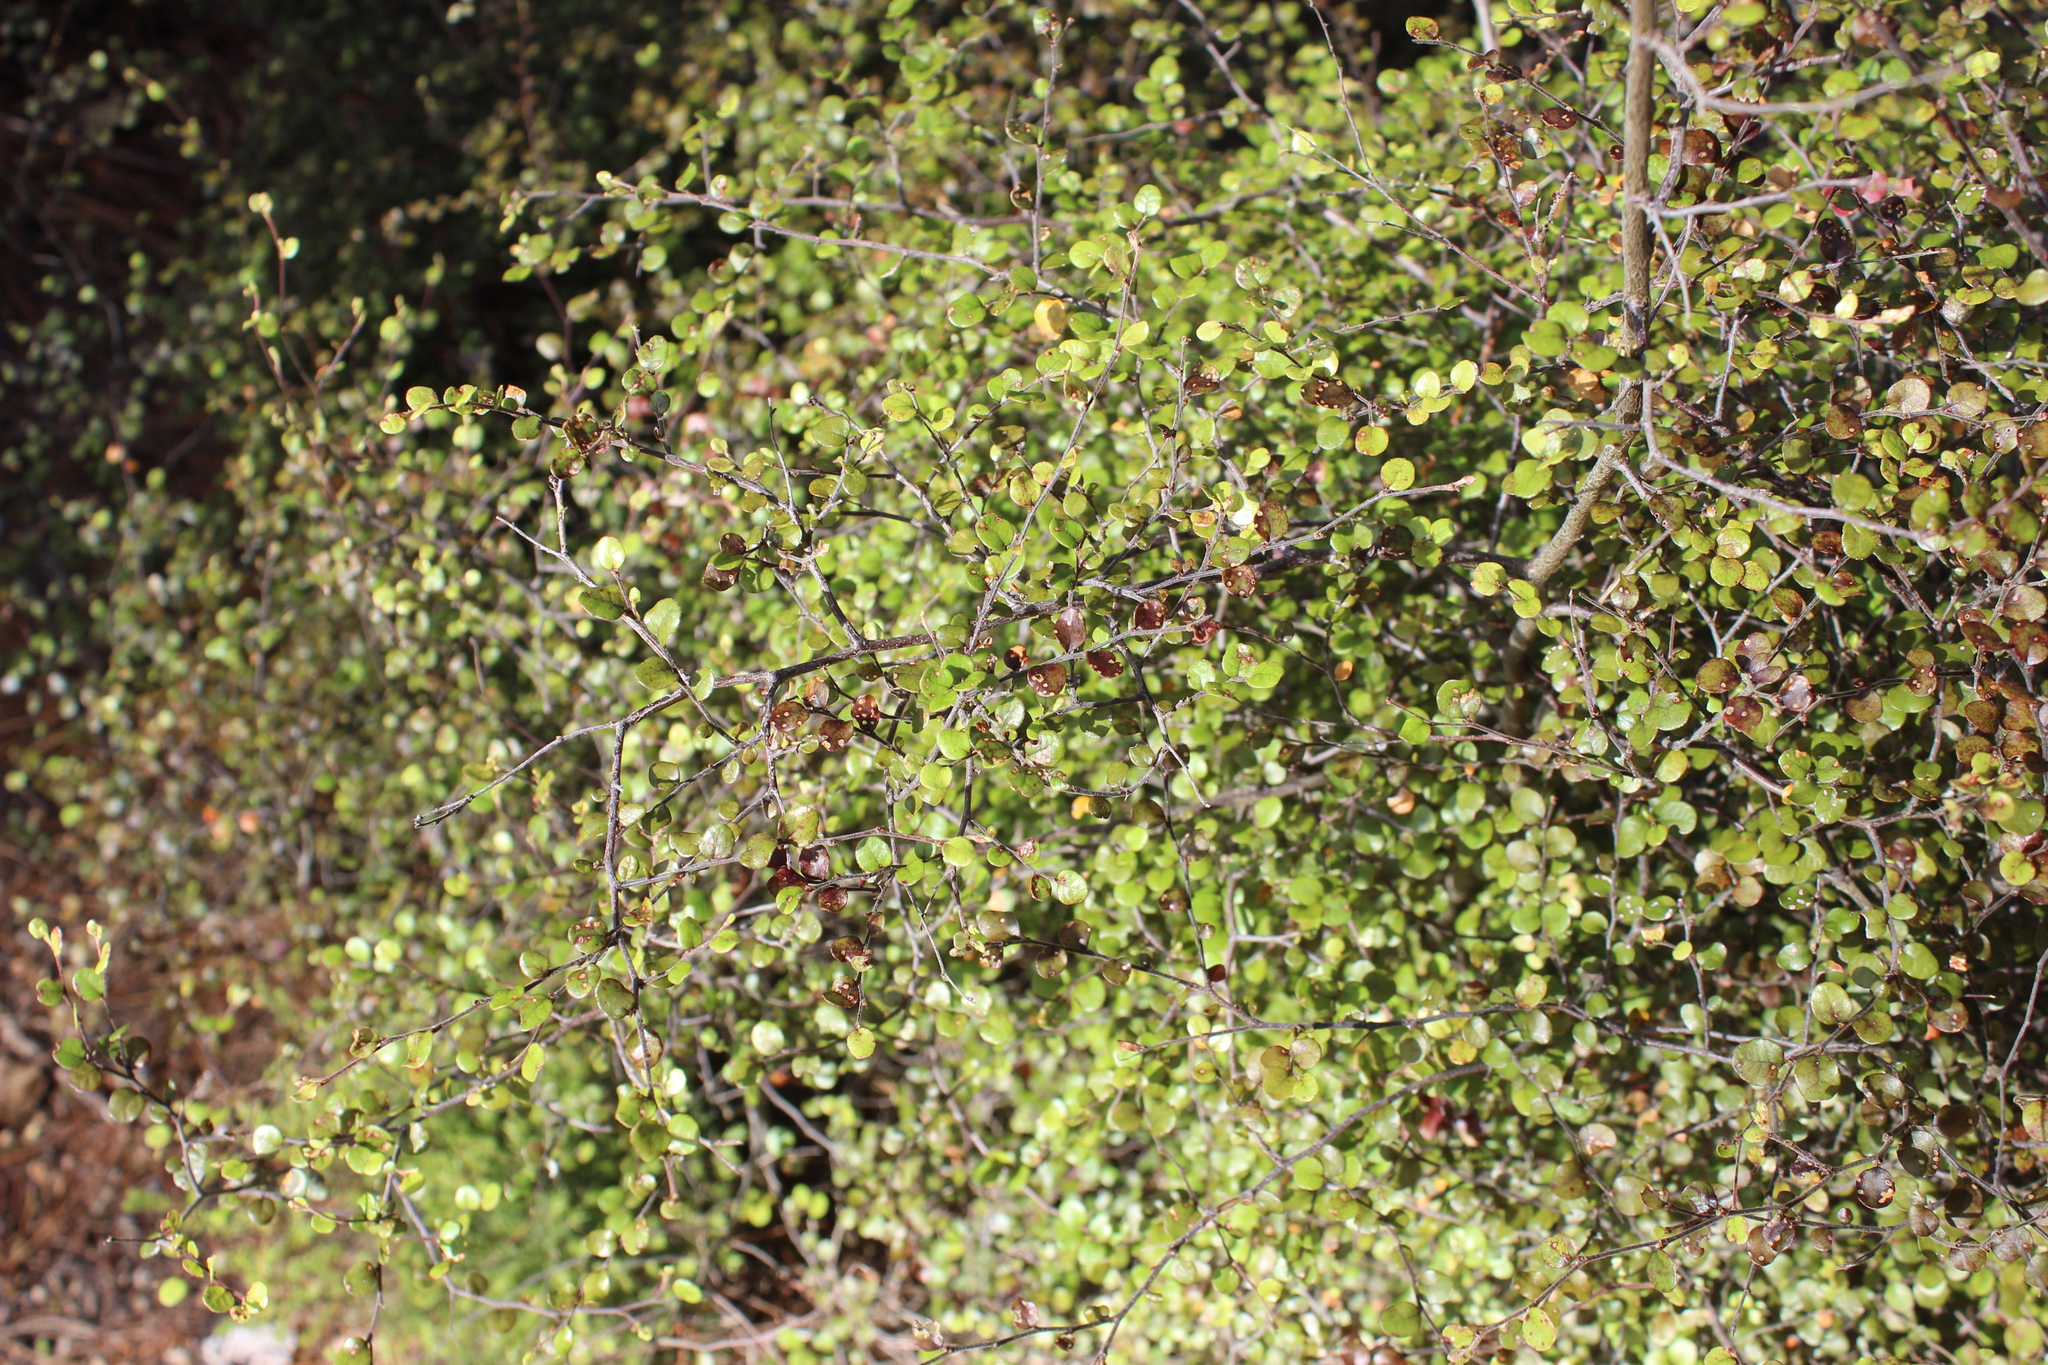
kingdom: Plantae
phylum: Tracheophyta
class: Magnoliopsida
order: Fagales
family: Nothofagaceae
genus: Nothofagus
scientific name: Nothofagus solandri
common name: Black beech
